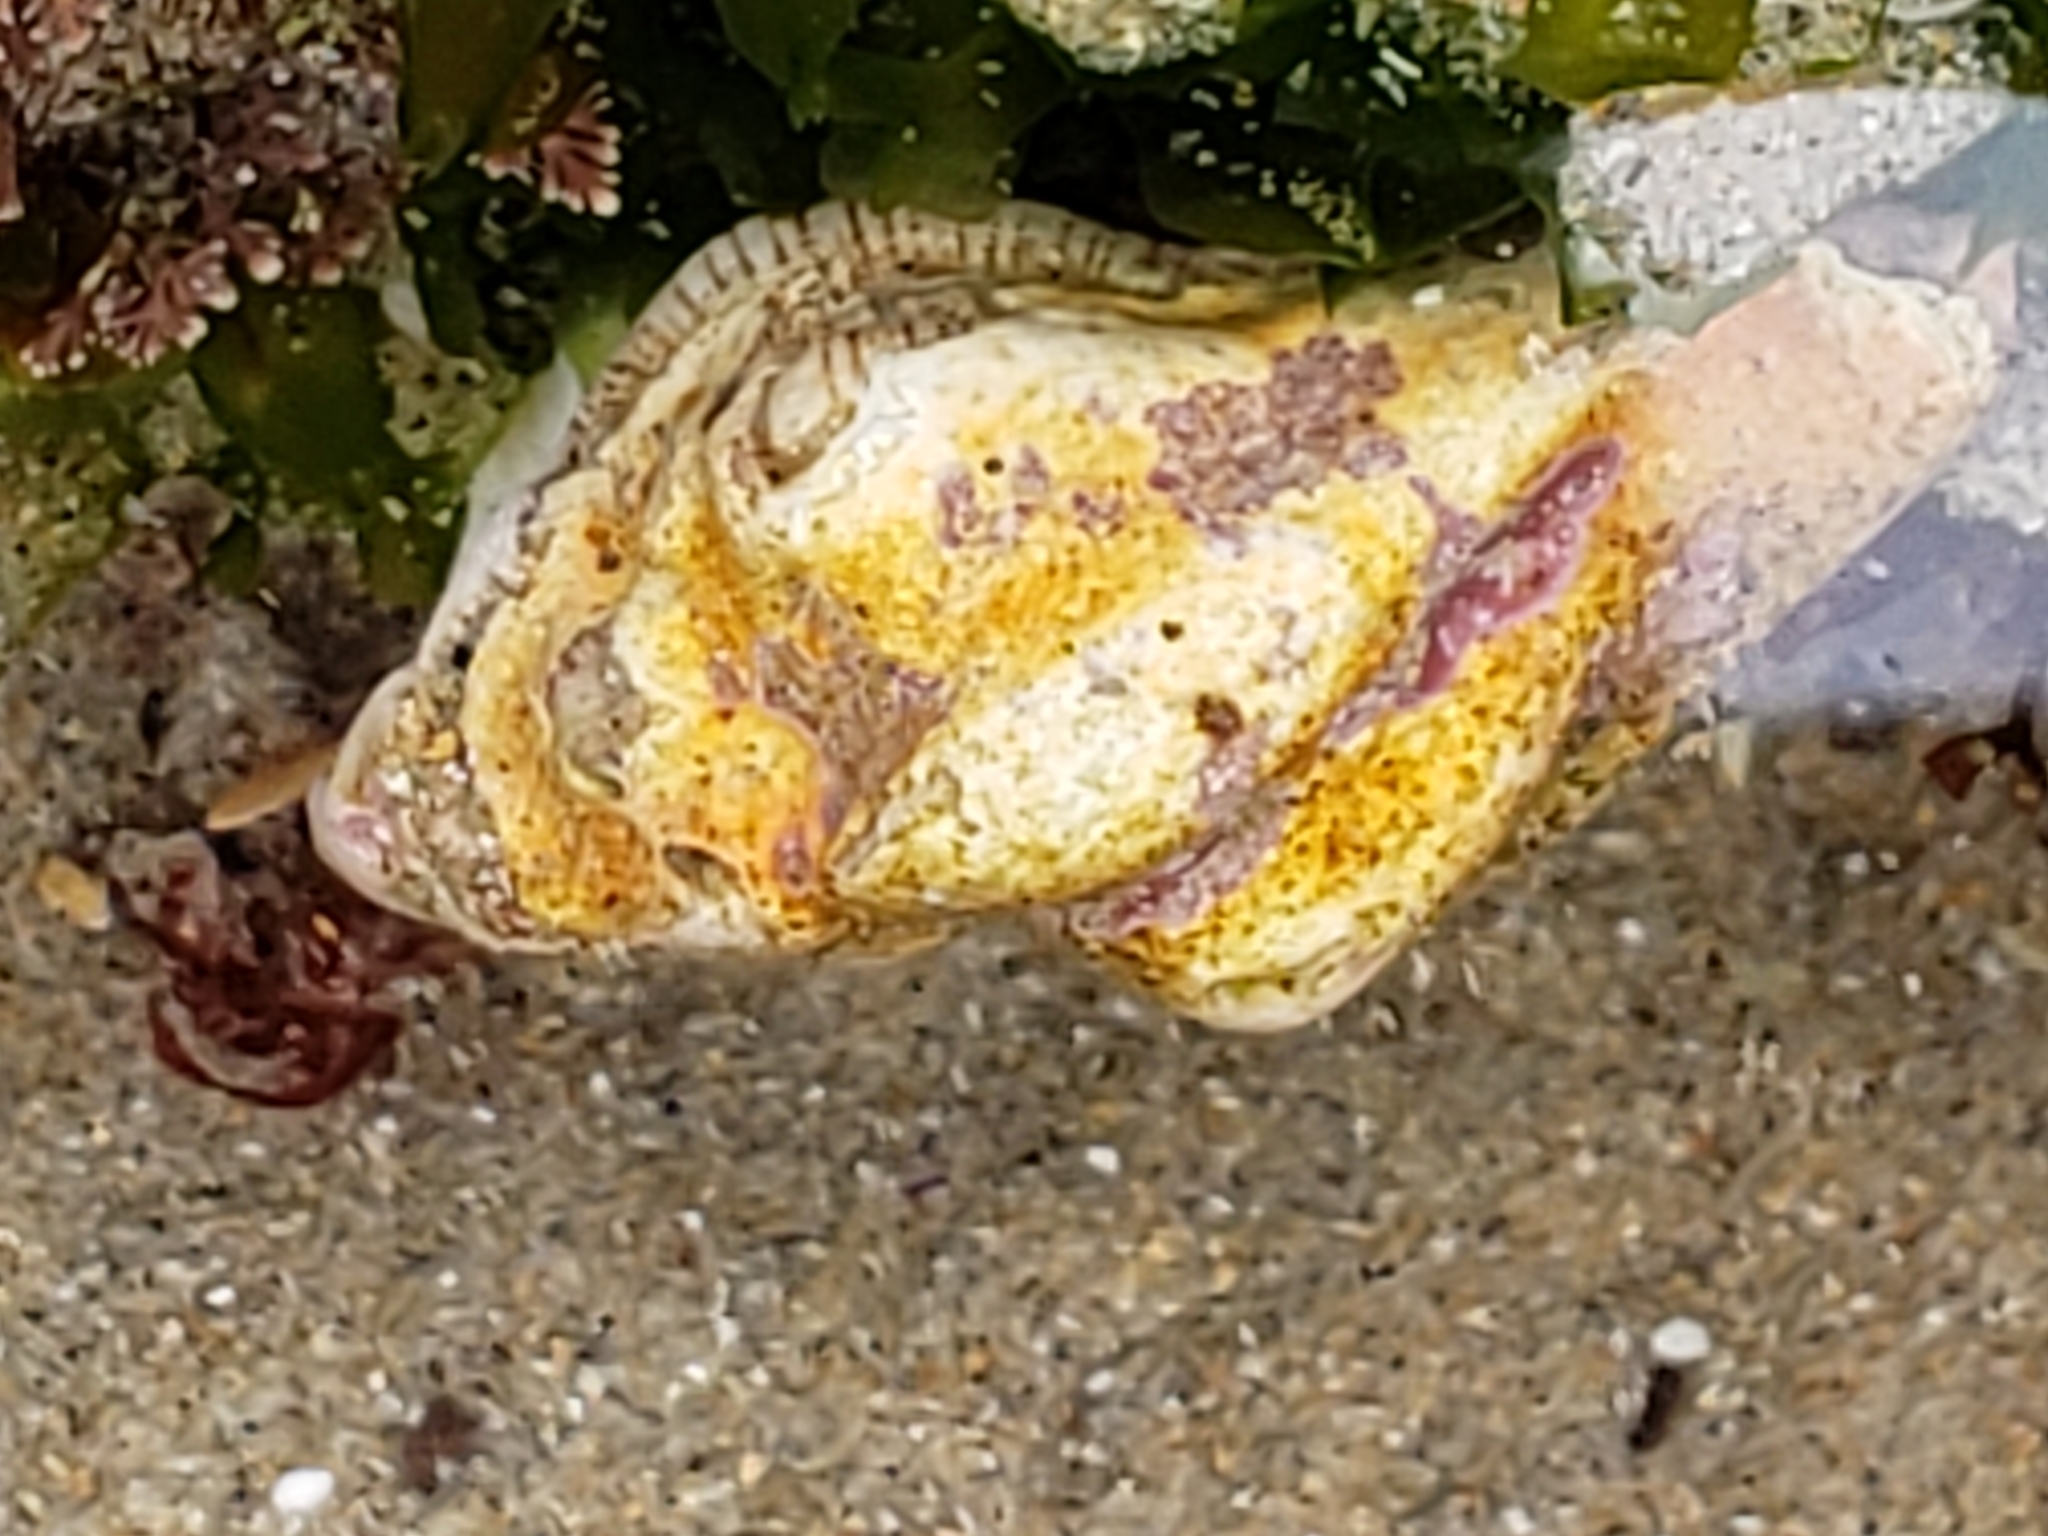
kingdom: Animalia
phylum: Mollusca
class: Gastropoda
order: Neogastropoda
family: Muricidae
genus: Pteropurpura
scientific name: Pteropurpura festiva
